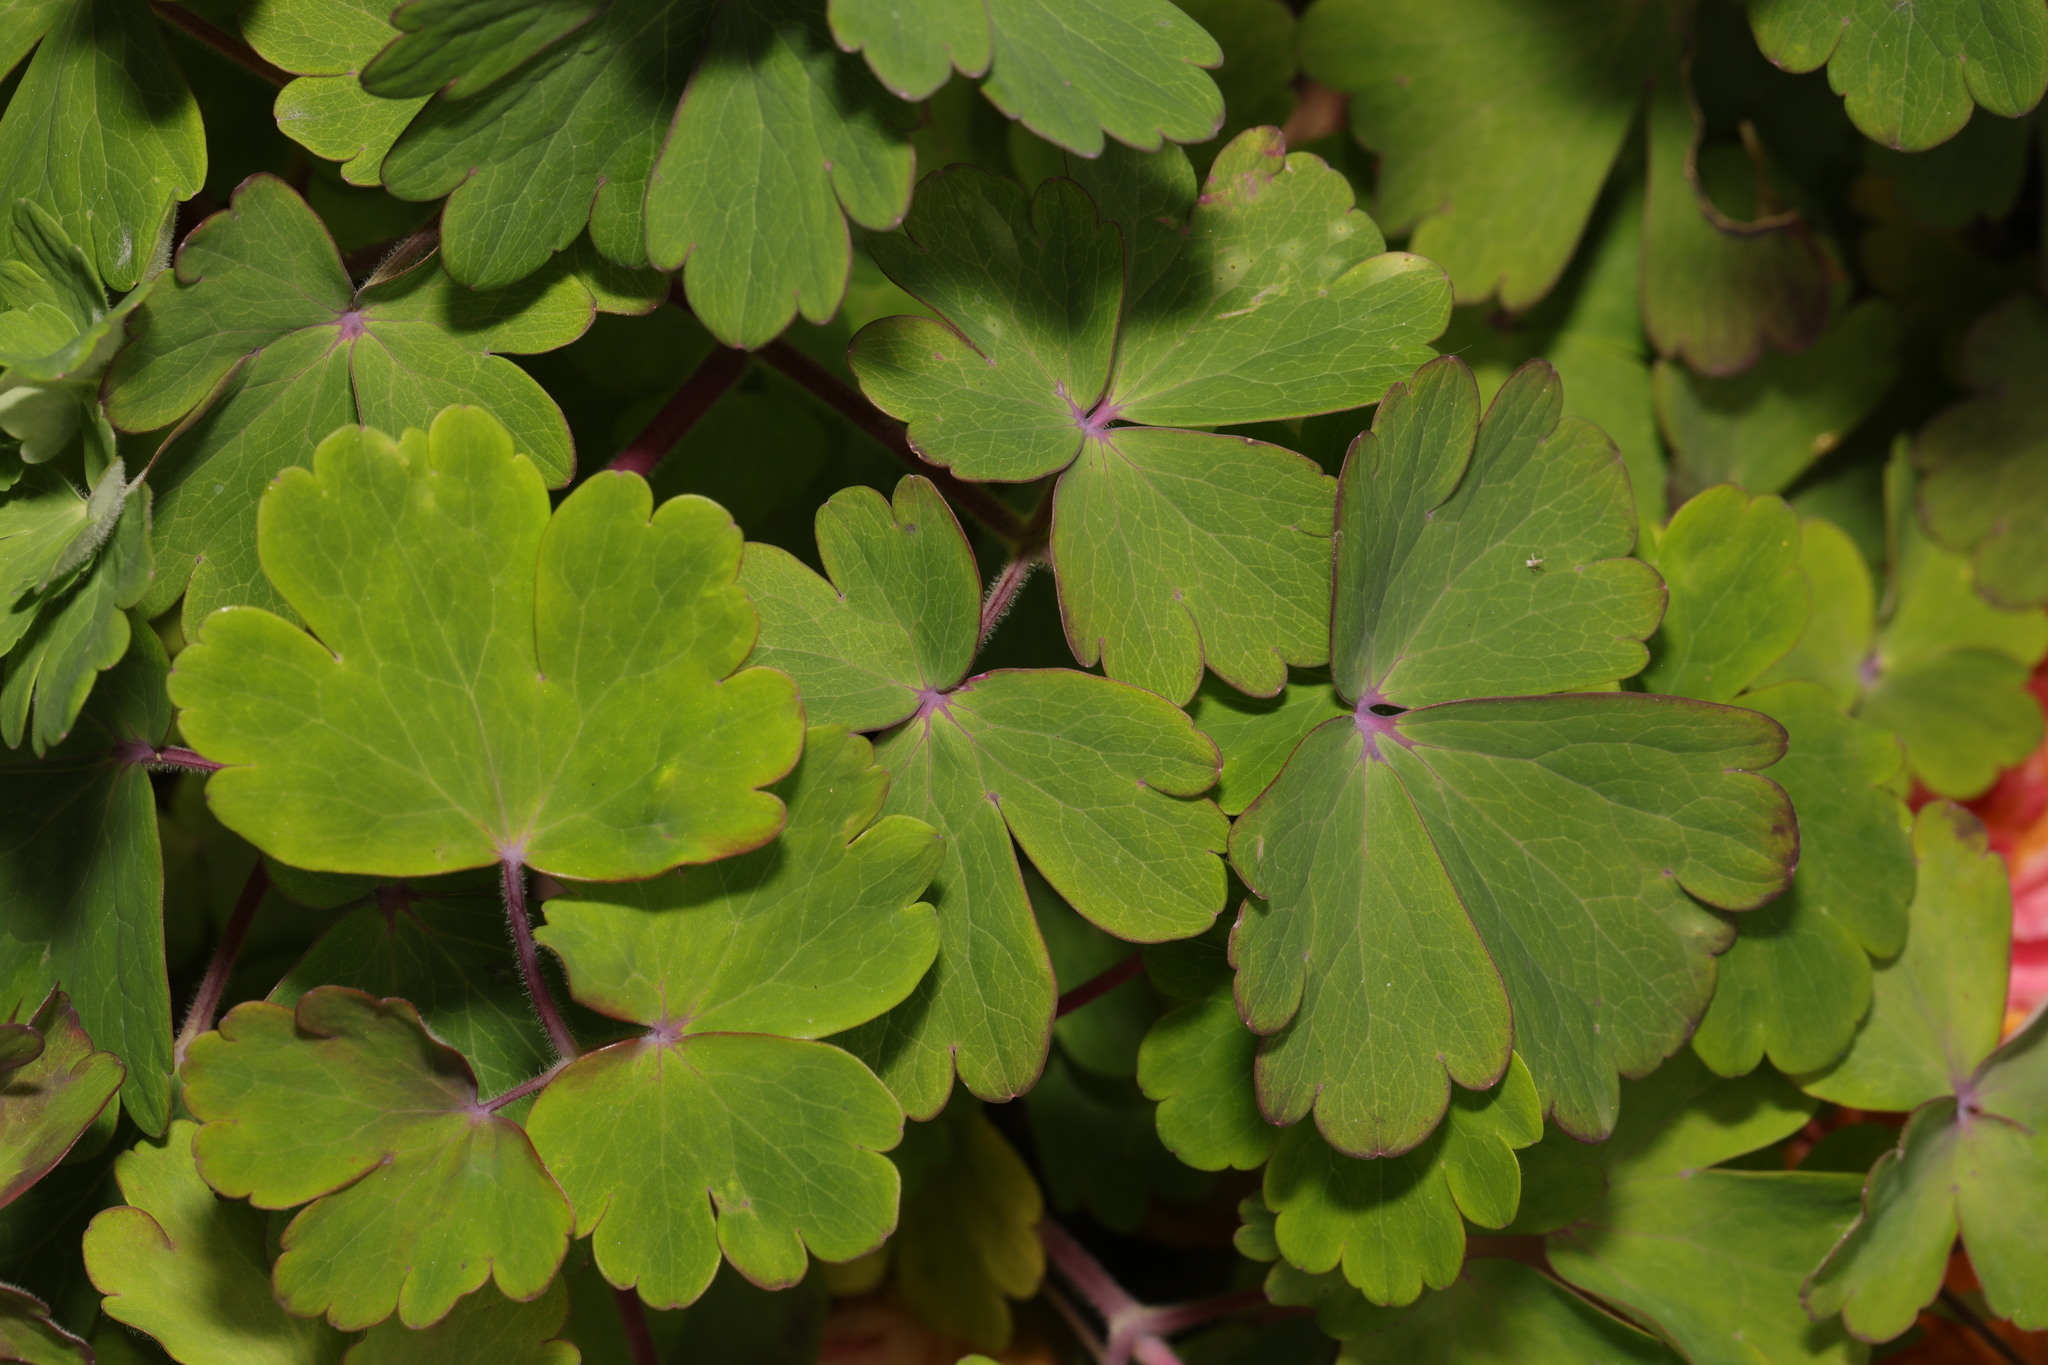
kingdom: Plantae
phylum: Tracheophyta
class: Magnoliopsida
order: Ranunculales
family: Ranunculaceae
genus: Aquilegia
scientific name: Aquilegia vulgaris
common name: Columbine
